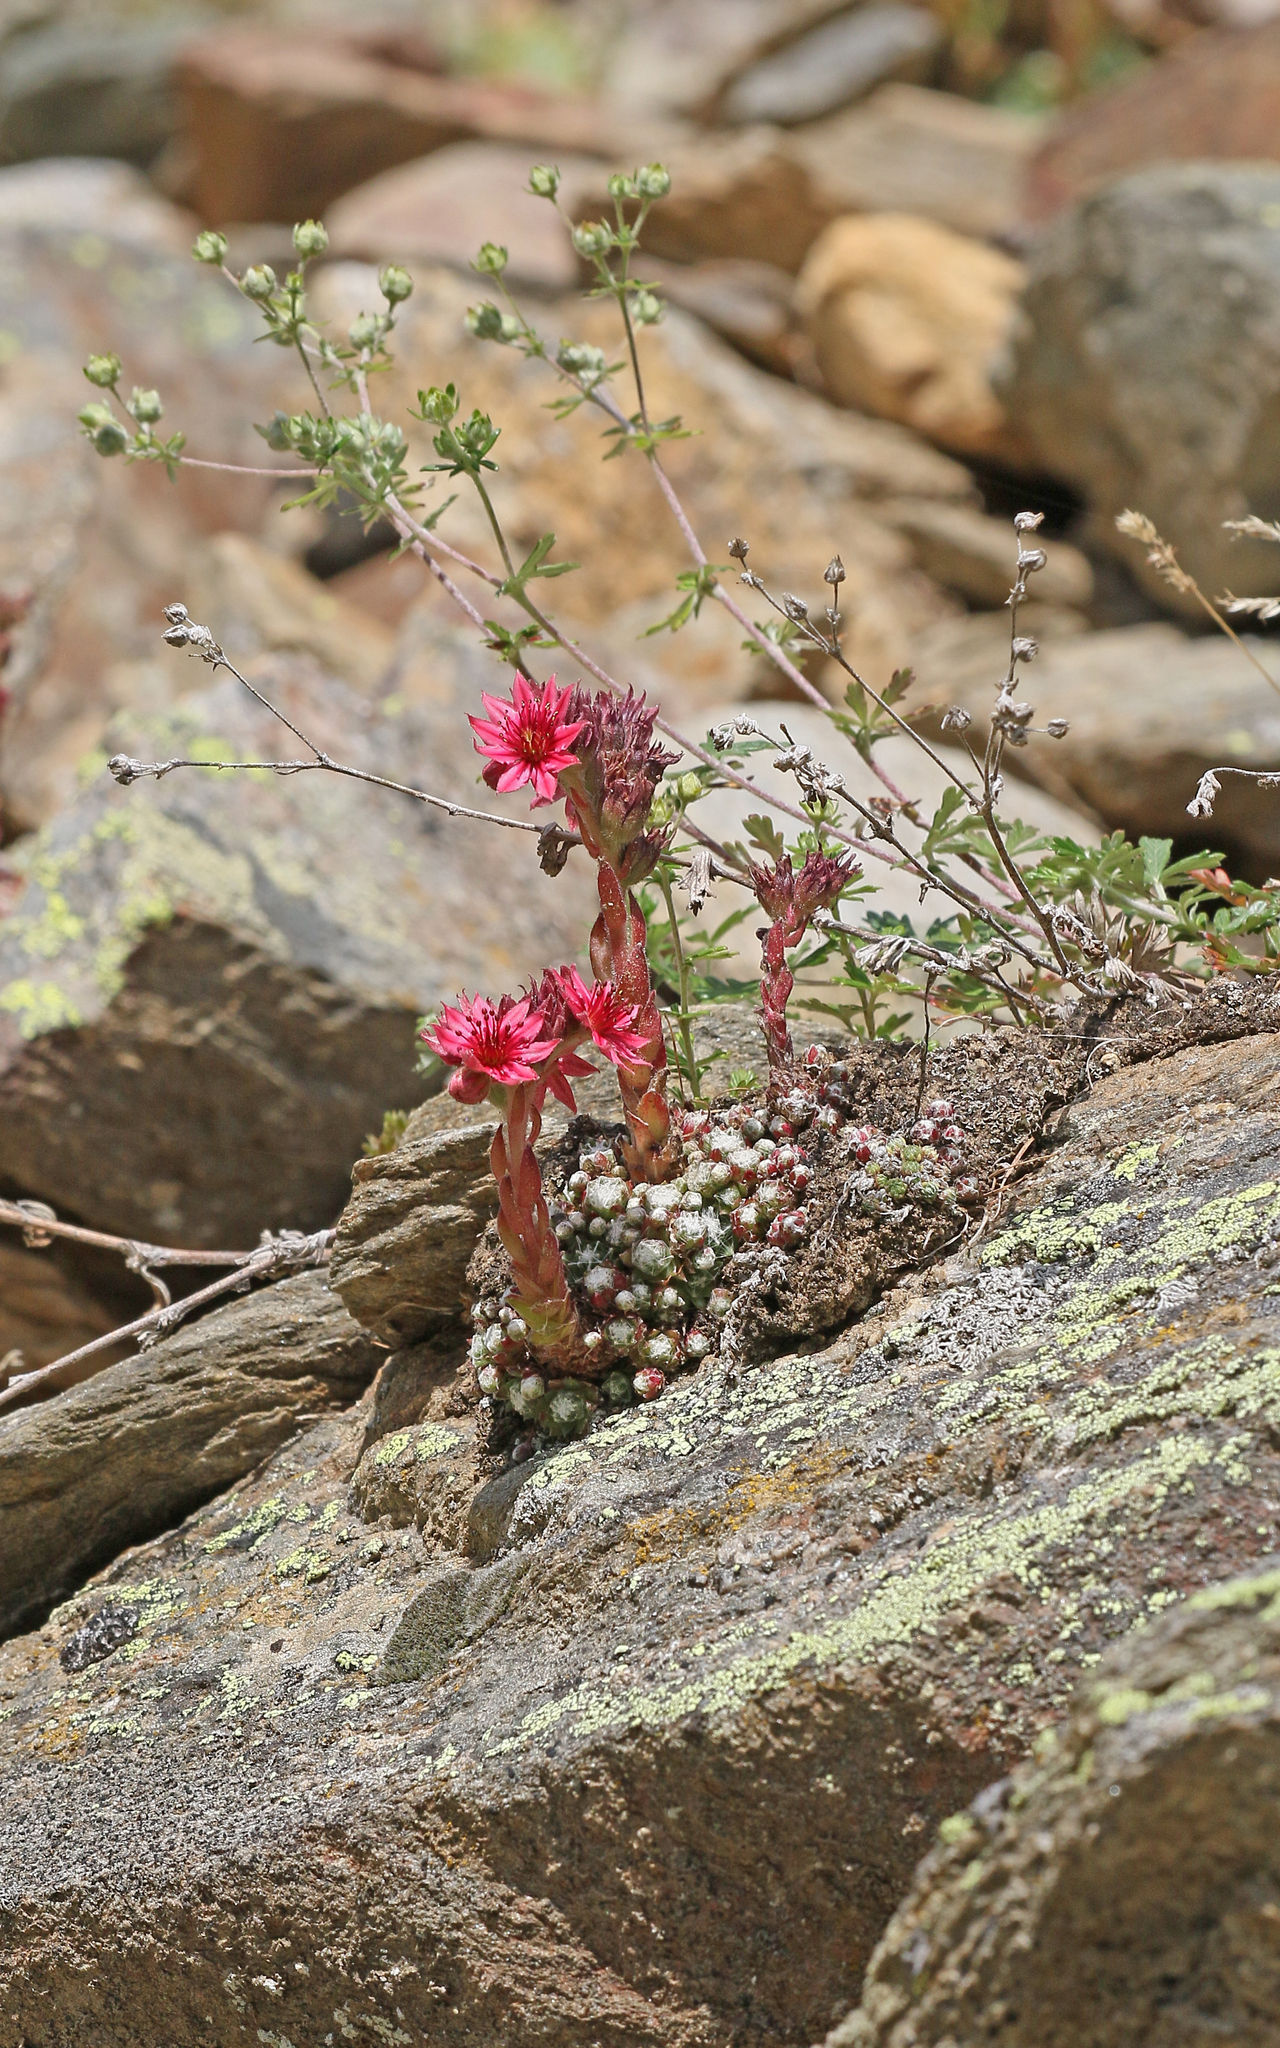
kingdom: Plantae
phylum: Tracheophyta
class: Magnoliopsida
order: Saxifragales
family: Crassulaceae
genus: Sempervivum
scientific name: Sempervivum arachnoideum
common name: Cobweb house-leek
